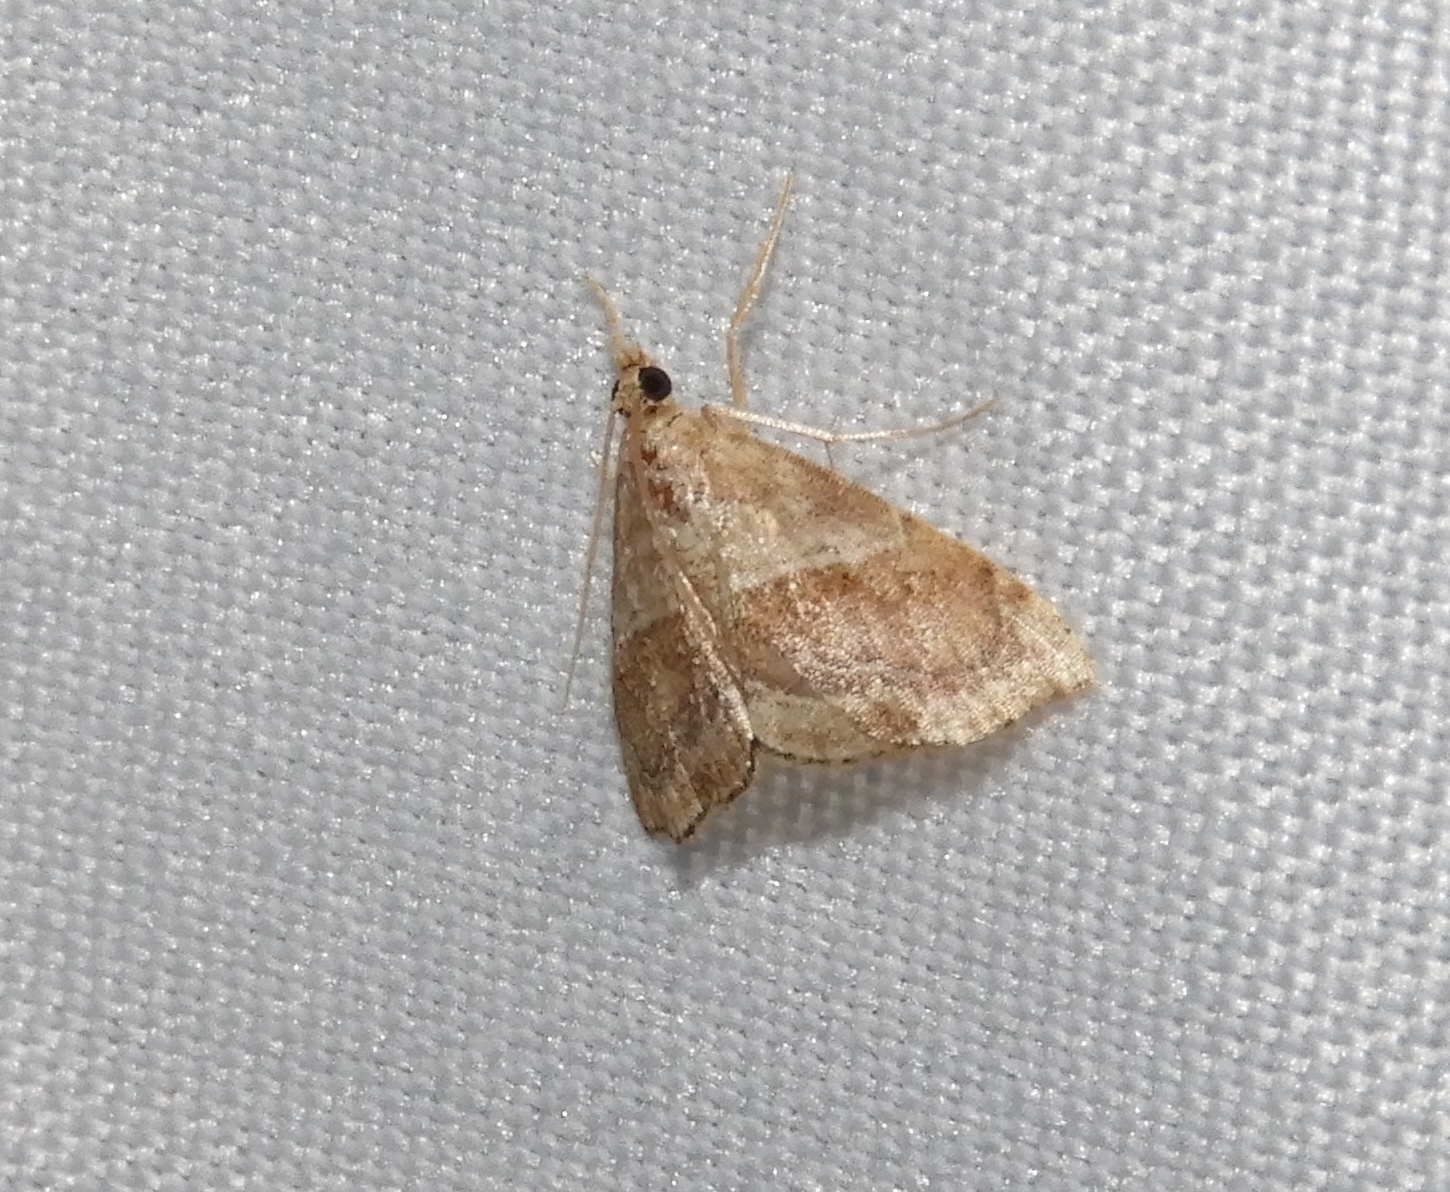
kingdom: Animalia
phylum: Arthropoda
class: Insecta
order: Lepidoptera
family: Crambidae
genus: Scybalistodes
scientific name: Scybalistodes vermiculalis
